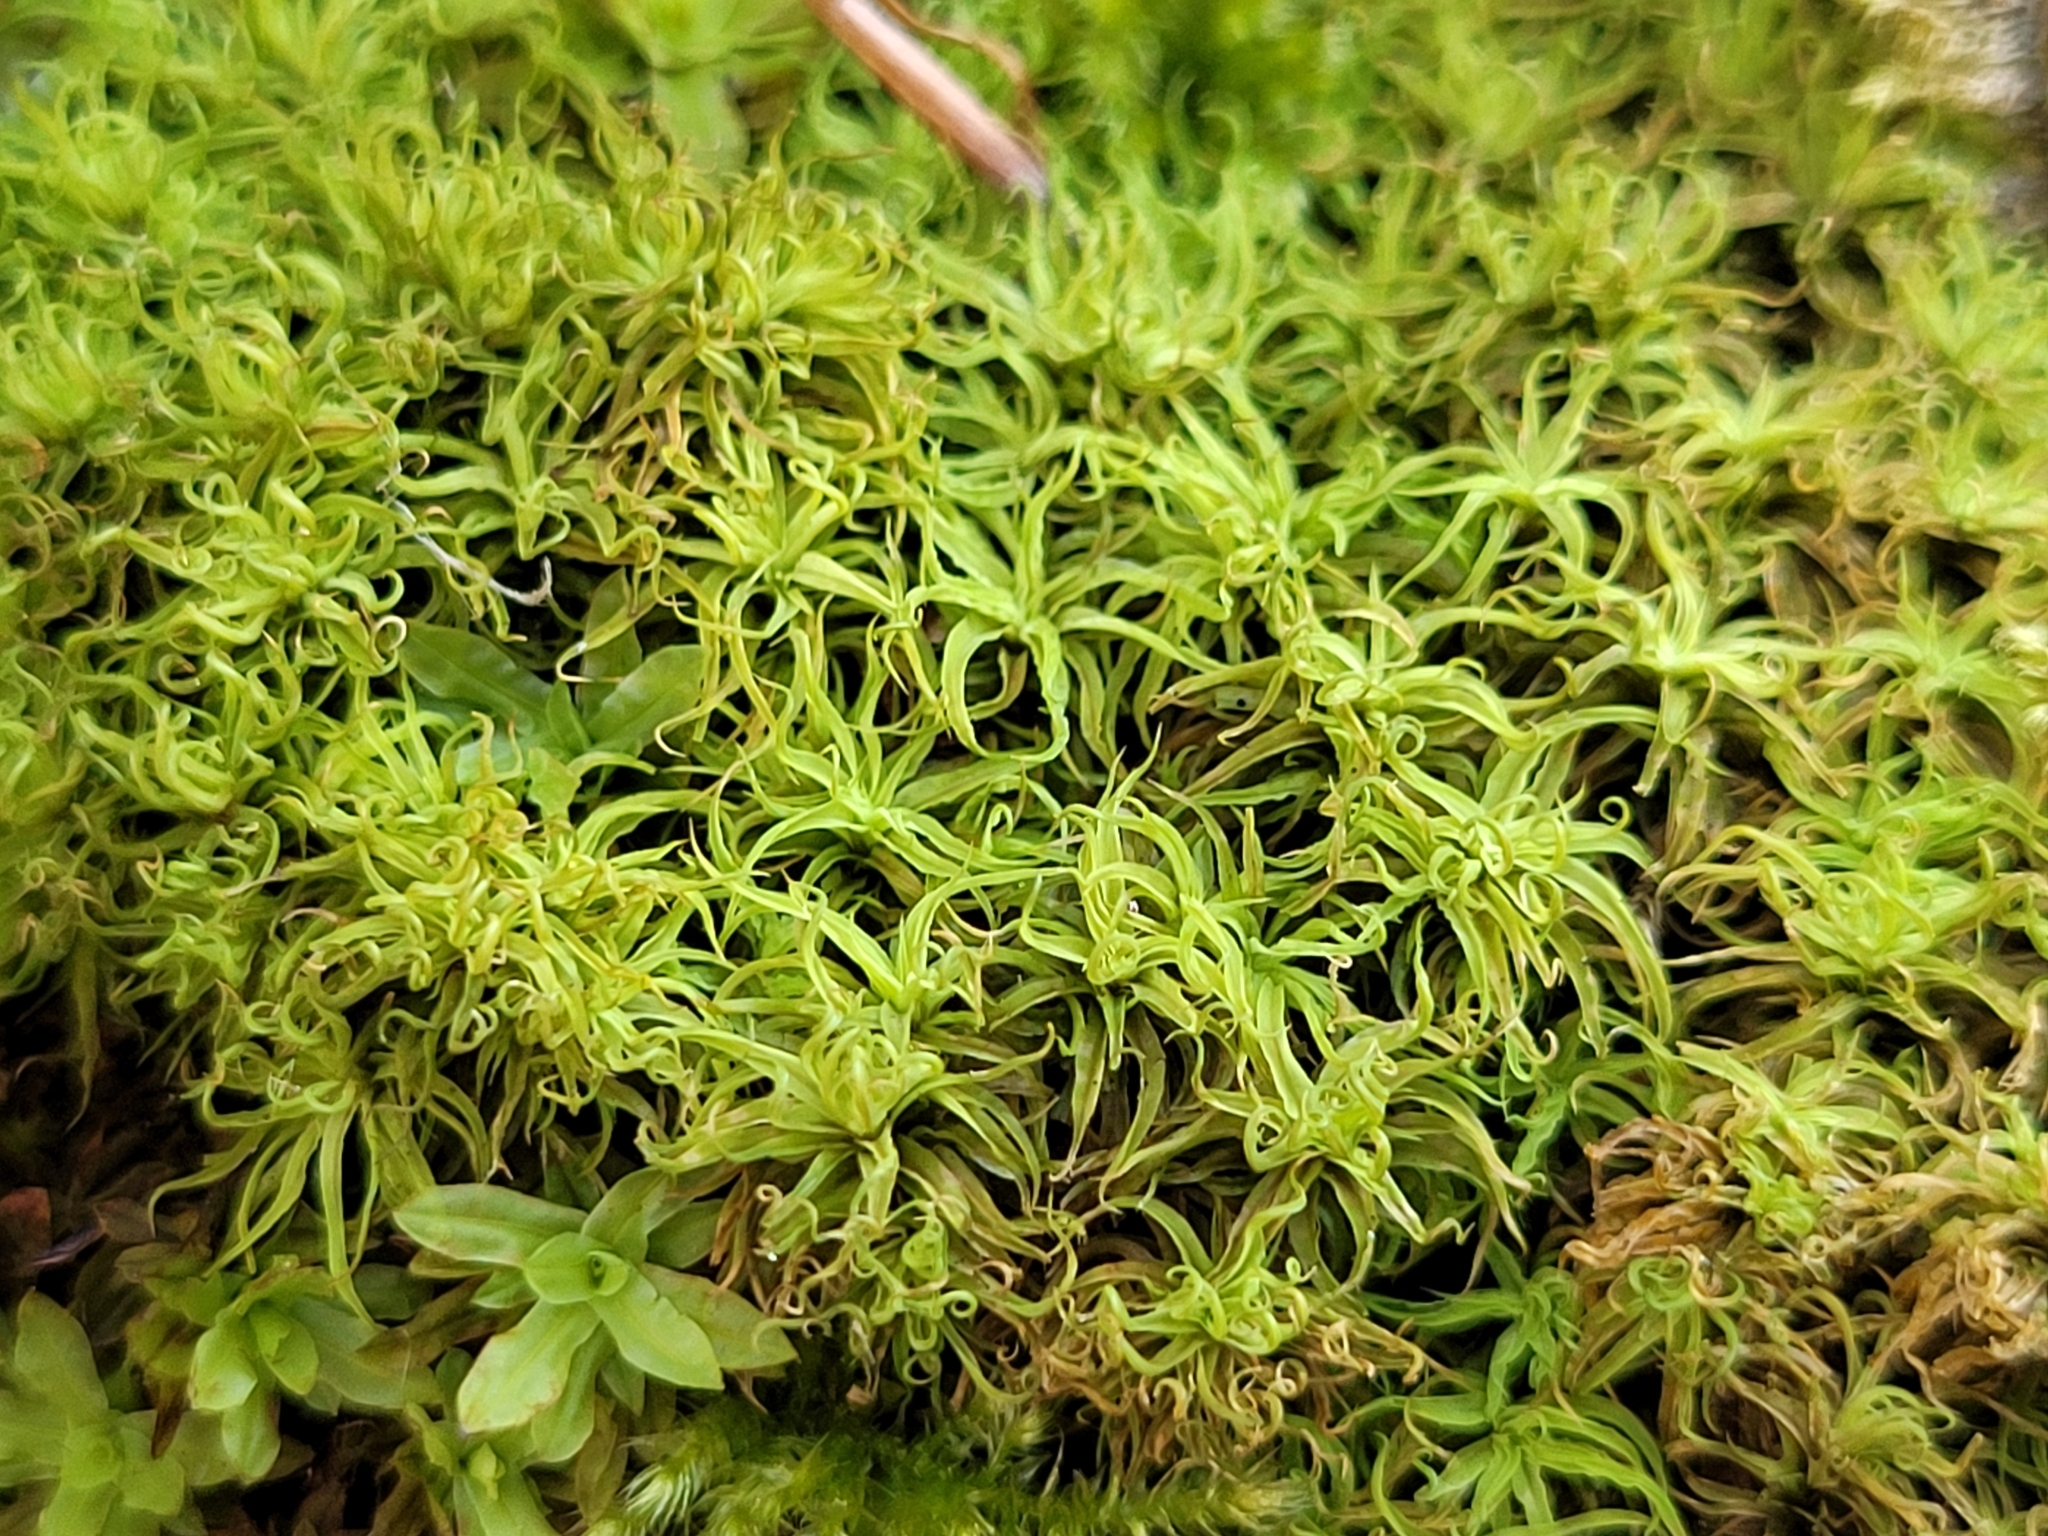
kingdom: Plantae
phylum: Bryophyta
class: Bryopsida
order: Pottiales
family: Pottiaceae
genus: Pleurochaete
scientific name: Pleurochaete squarrosa
